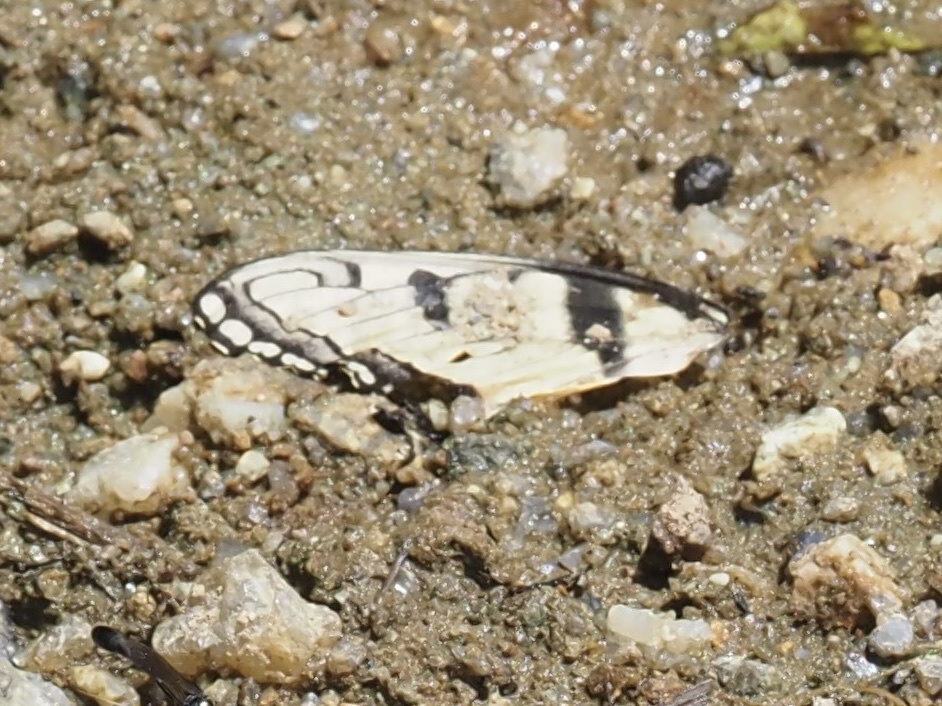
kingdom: Animalia
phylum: Arthropoda
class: Insecta
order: Lepidoptera
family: Papilionidae
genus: Papilio
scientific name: Papilio glaucus
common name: Tiger swallowtail
